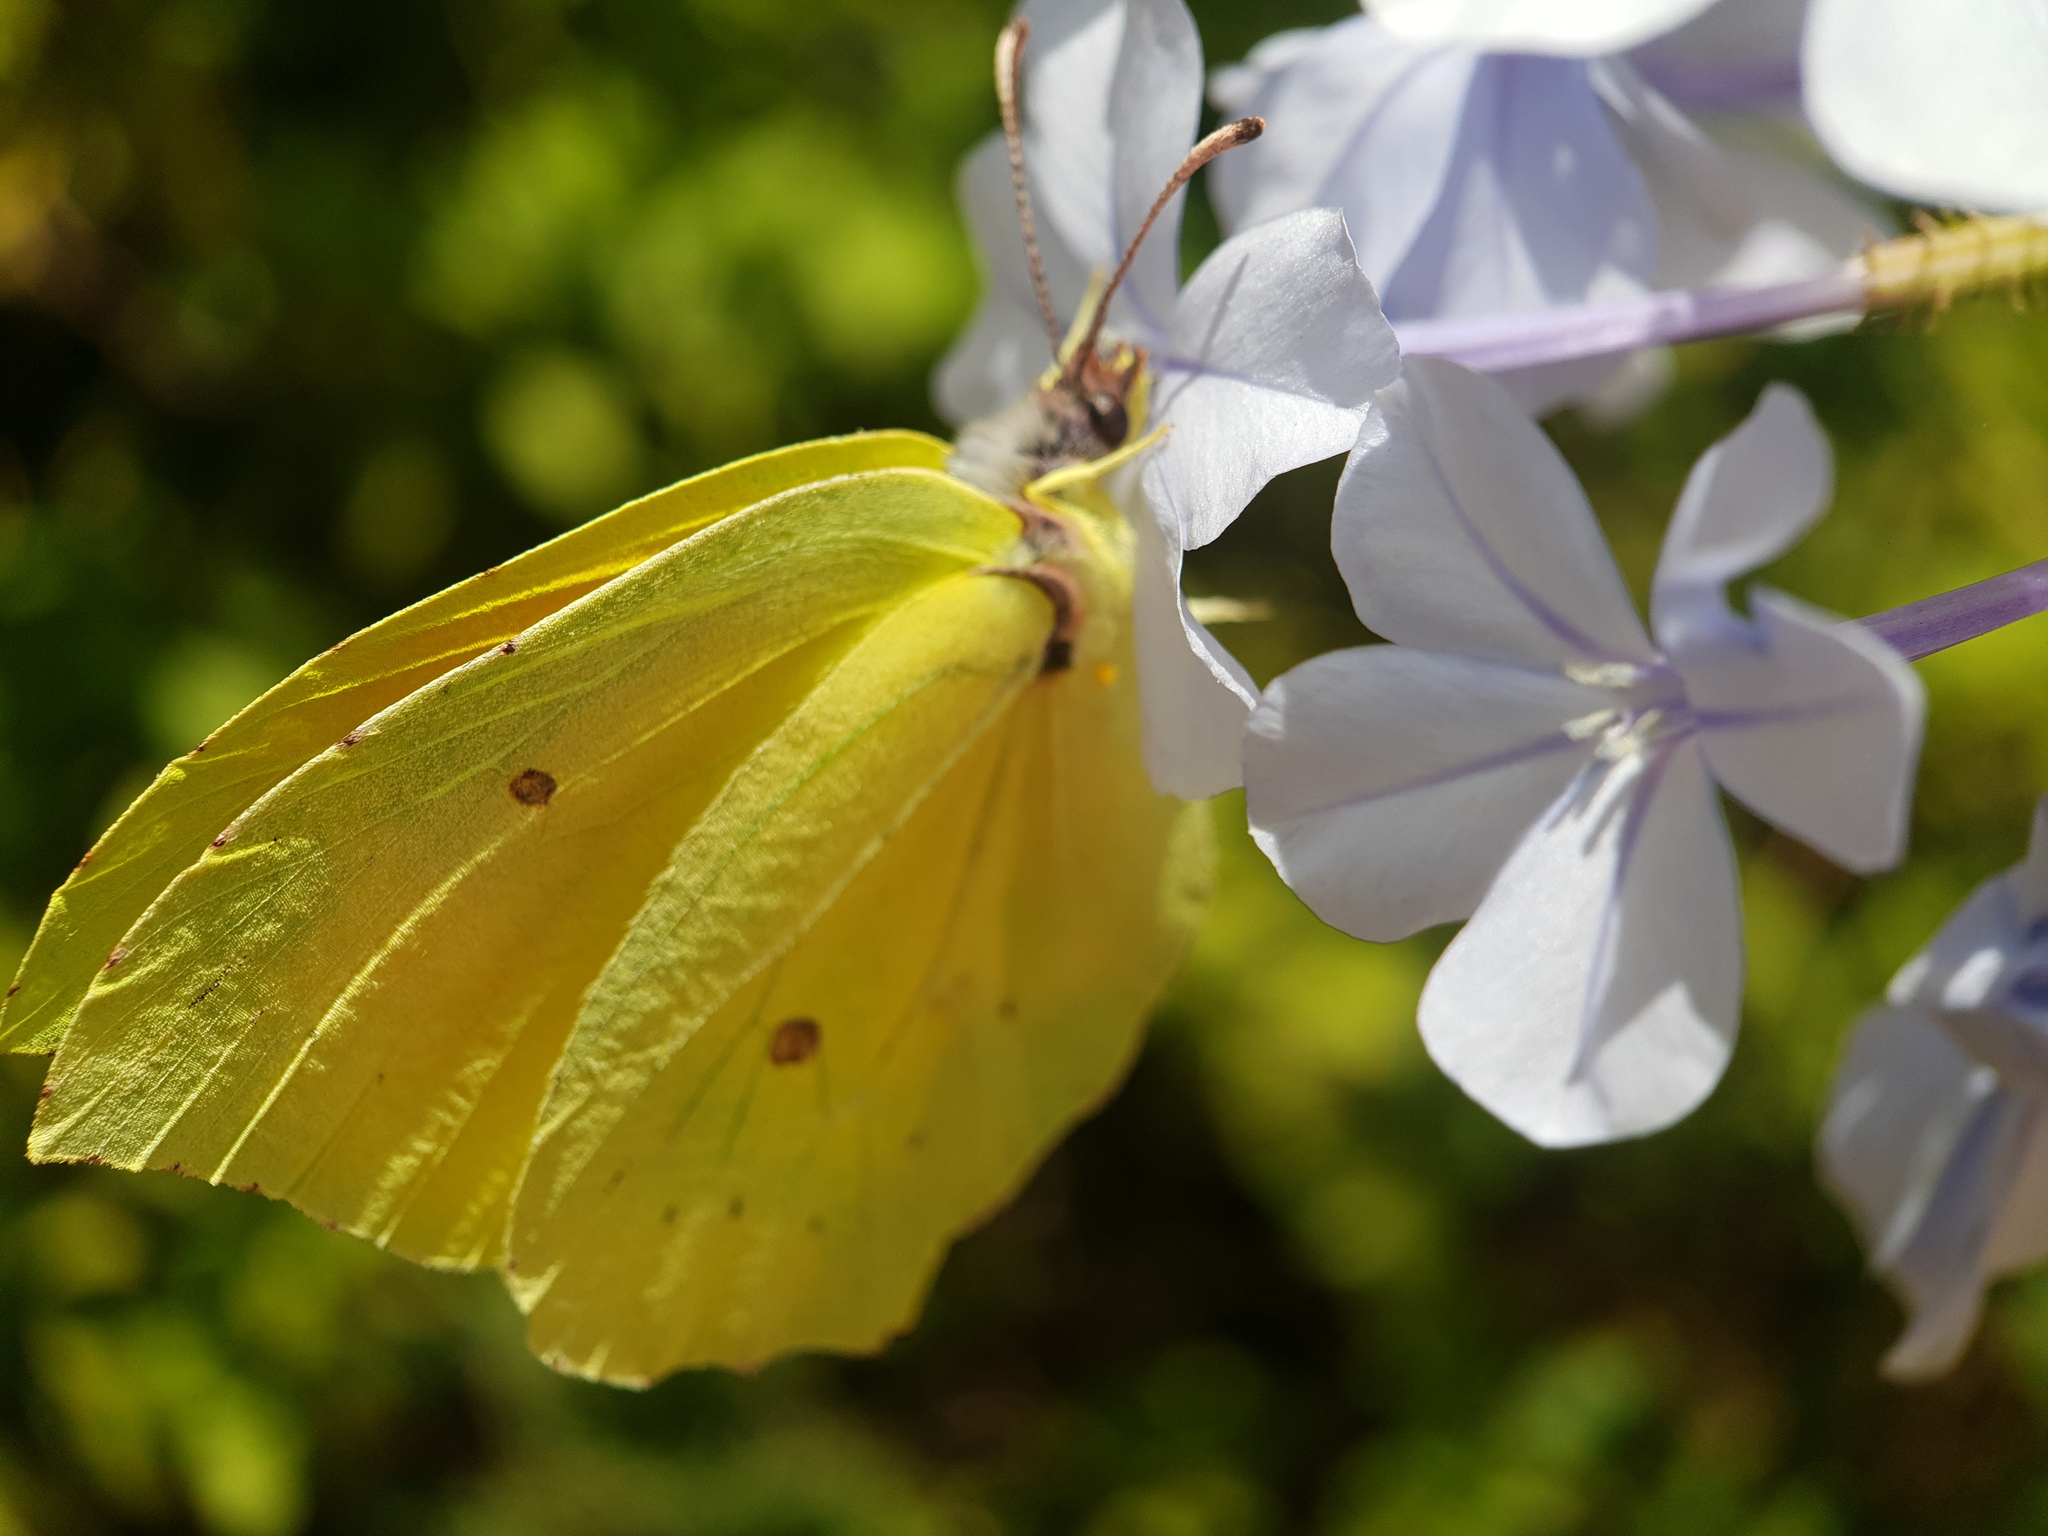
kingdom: Animalia
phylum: Arthropoda
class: Insecta
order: Lepidoptera
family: Pieridae
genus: Gonepteryx
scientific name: Gonepteryx cleopatra
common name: Cleopatra
